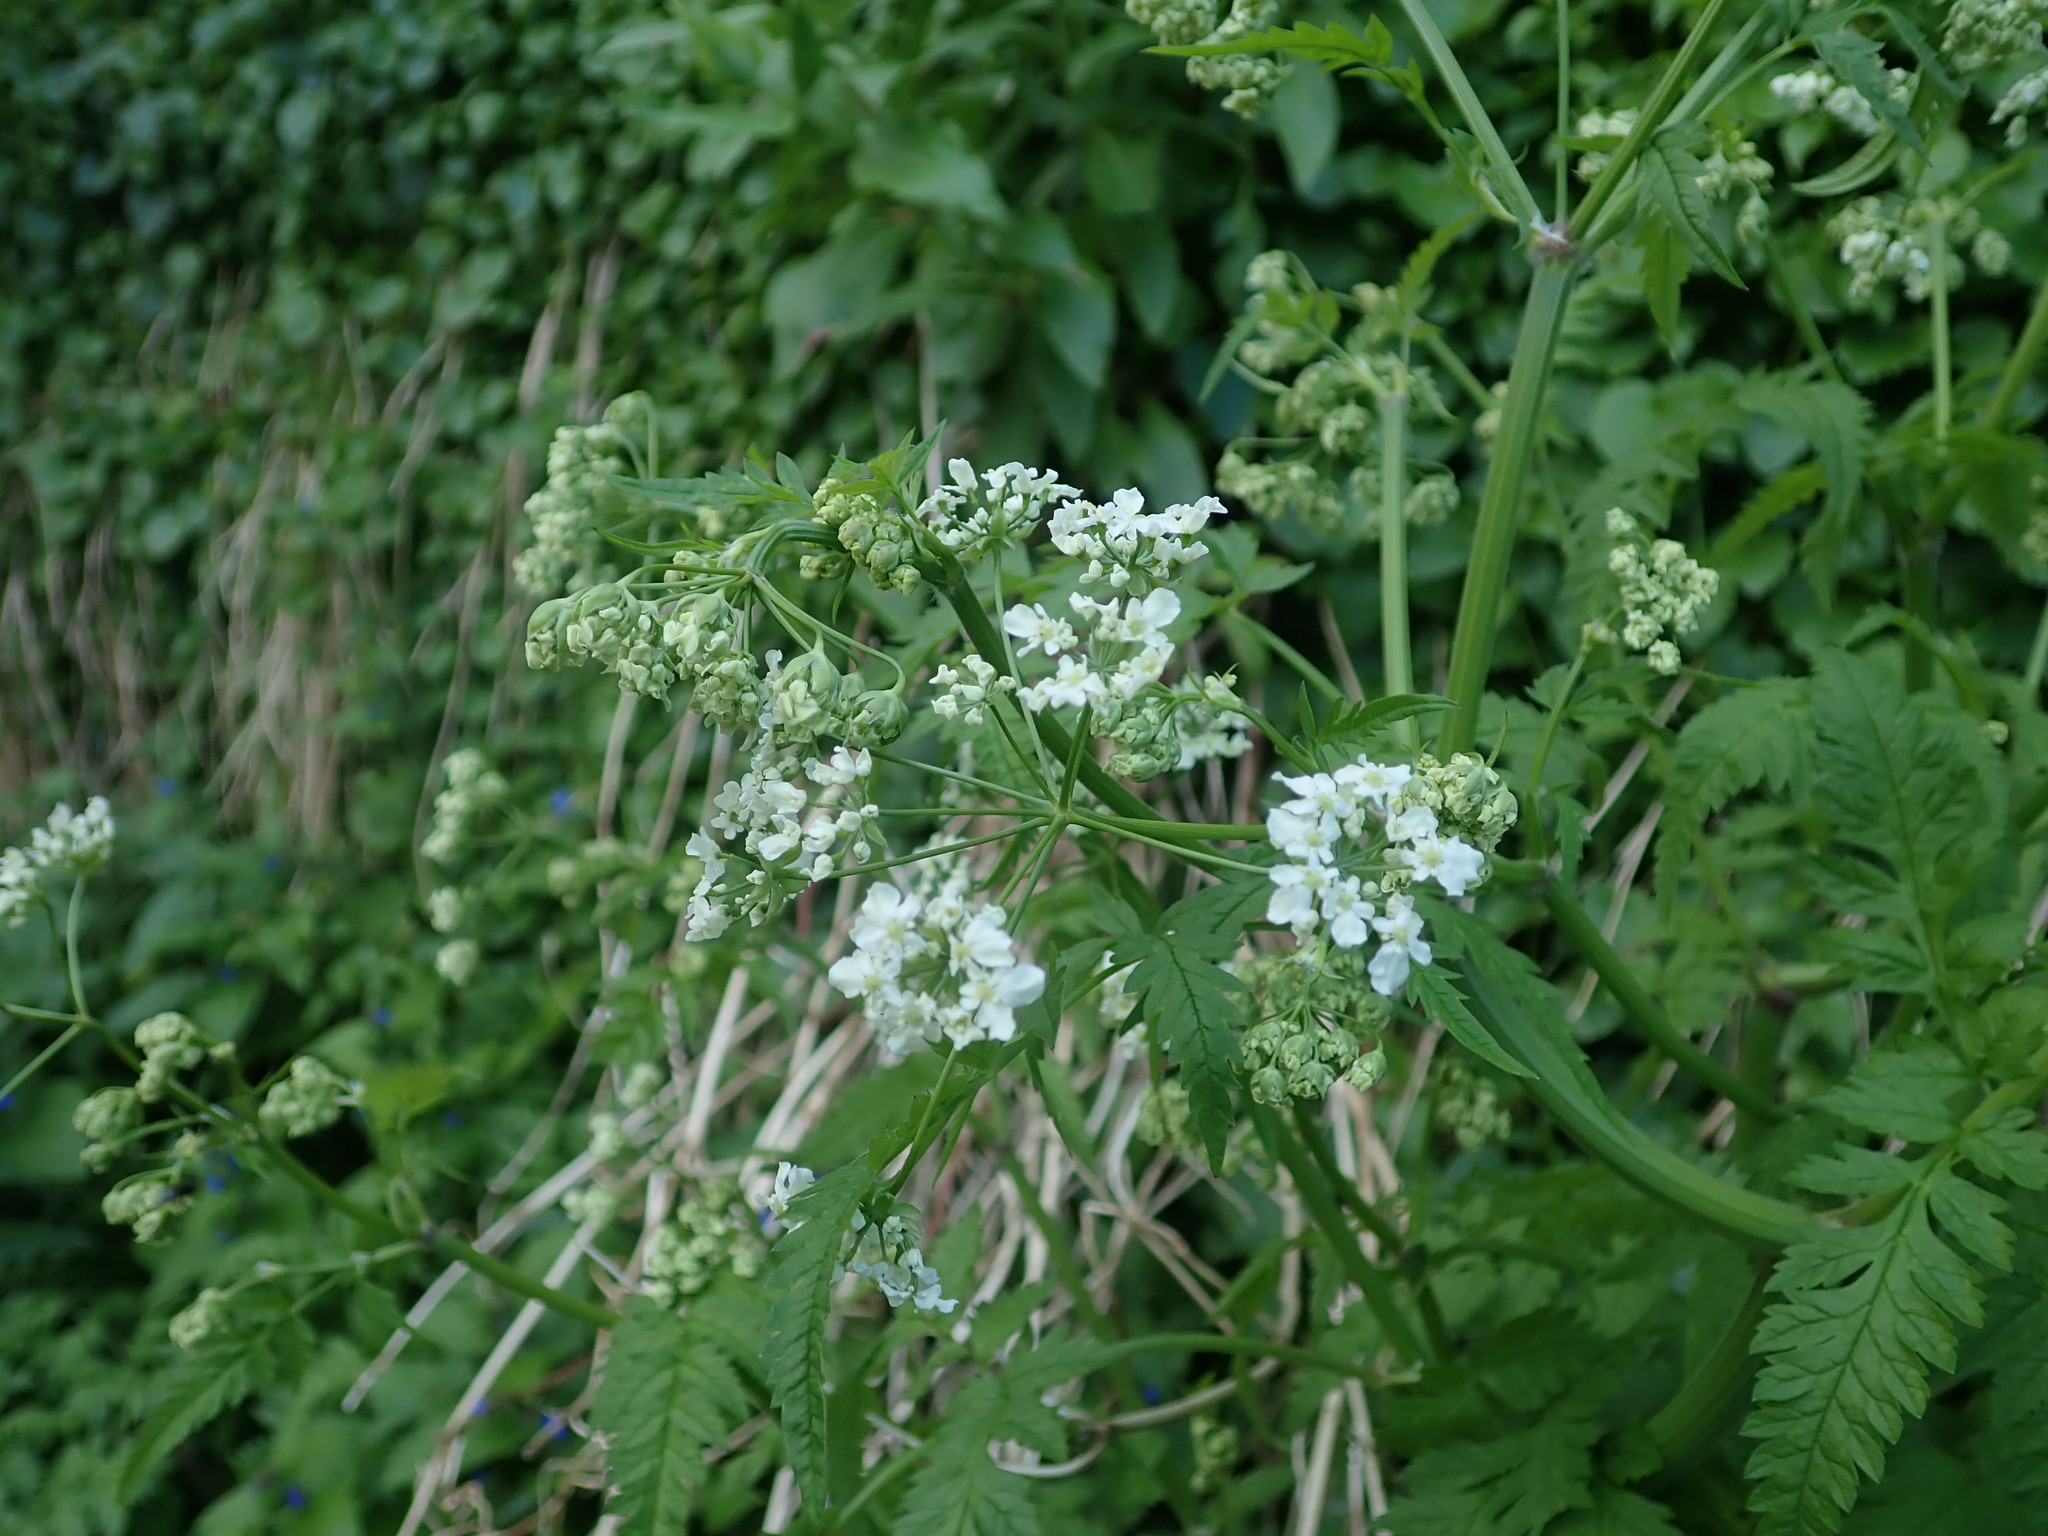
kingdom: Plantae
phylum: Tracheophyta
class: Magnoliopsida
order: Apiales
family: Apiaceae
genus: Anthriscus
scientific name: Anthriscus sylvestris
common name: Cow parsley
